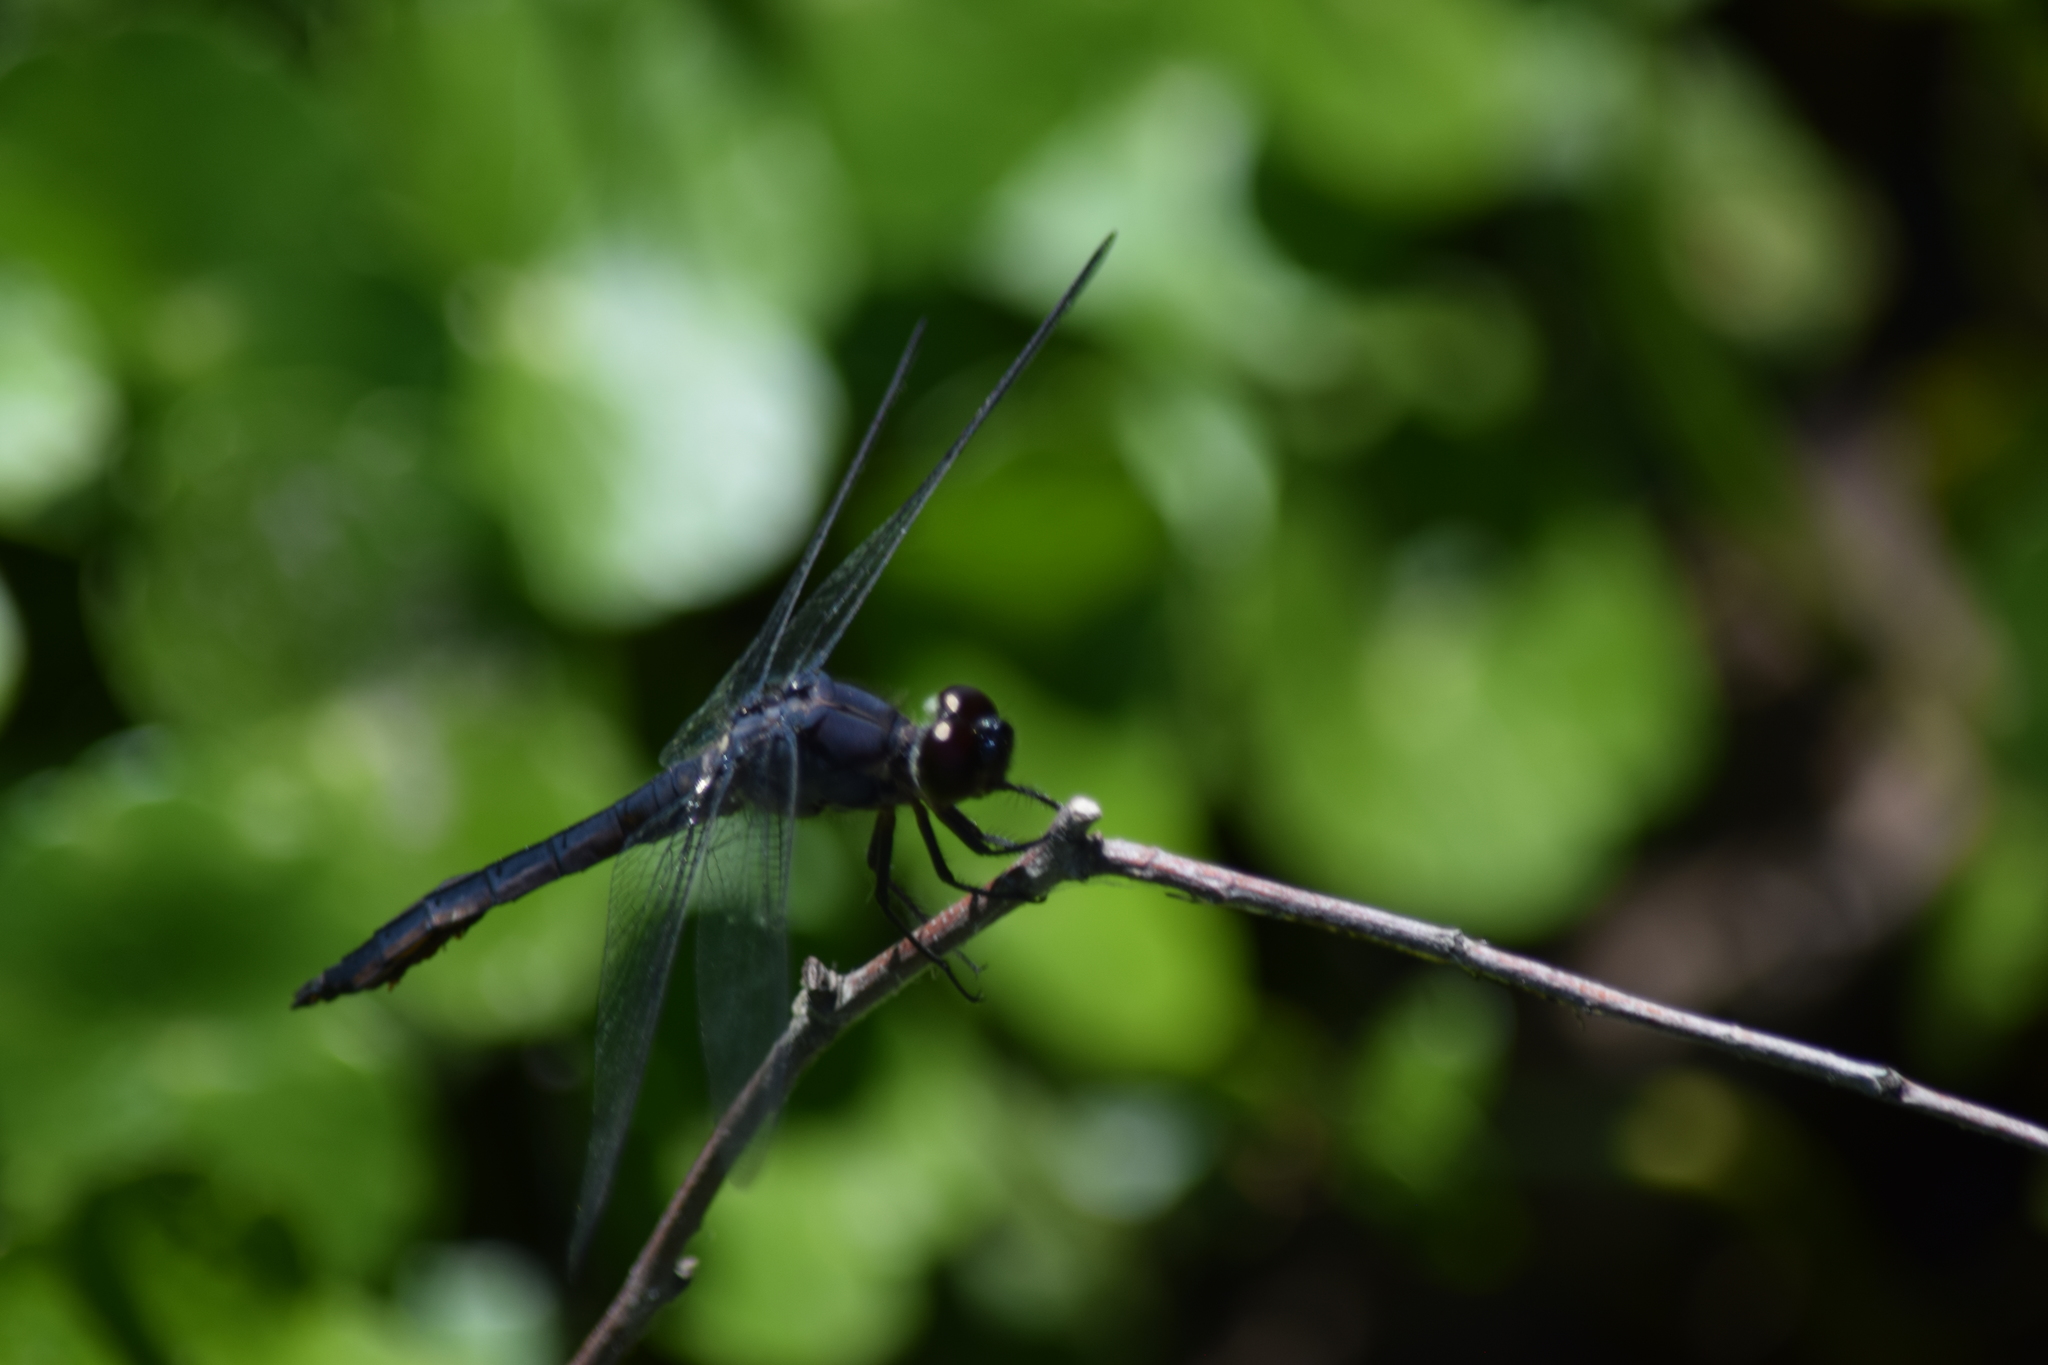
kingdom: Animalia
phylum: Arthropoda
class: Insecta
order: Odonata
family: Libellulidae
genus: Libellula
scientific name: Libellula incesta
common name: Slaty skimmer
